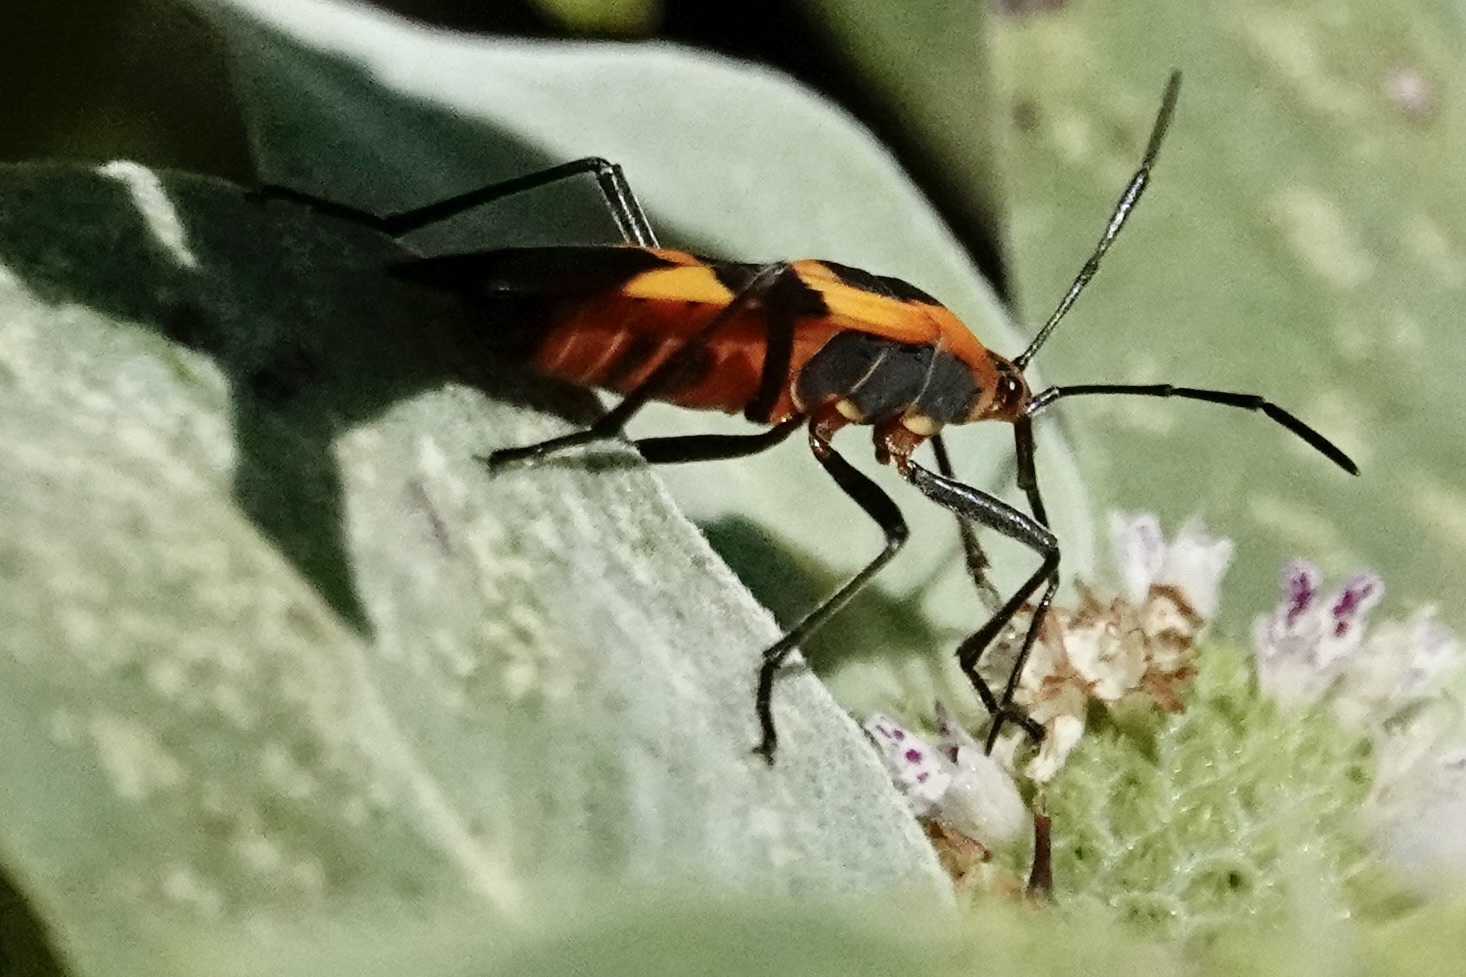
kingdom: Animalia
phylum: Arthropoda
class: Insecta
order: Hemiptera
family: Lygaeidae
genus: Oncopeltus
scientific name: Oncopeltus fasciatus
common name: Large milkweed bug
